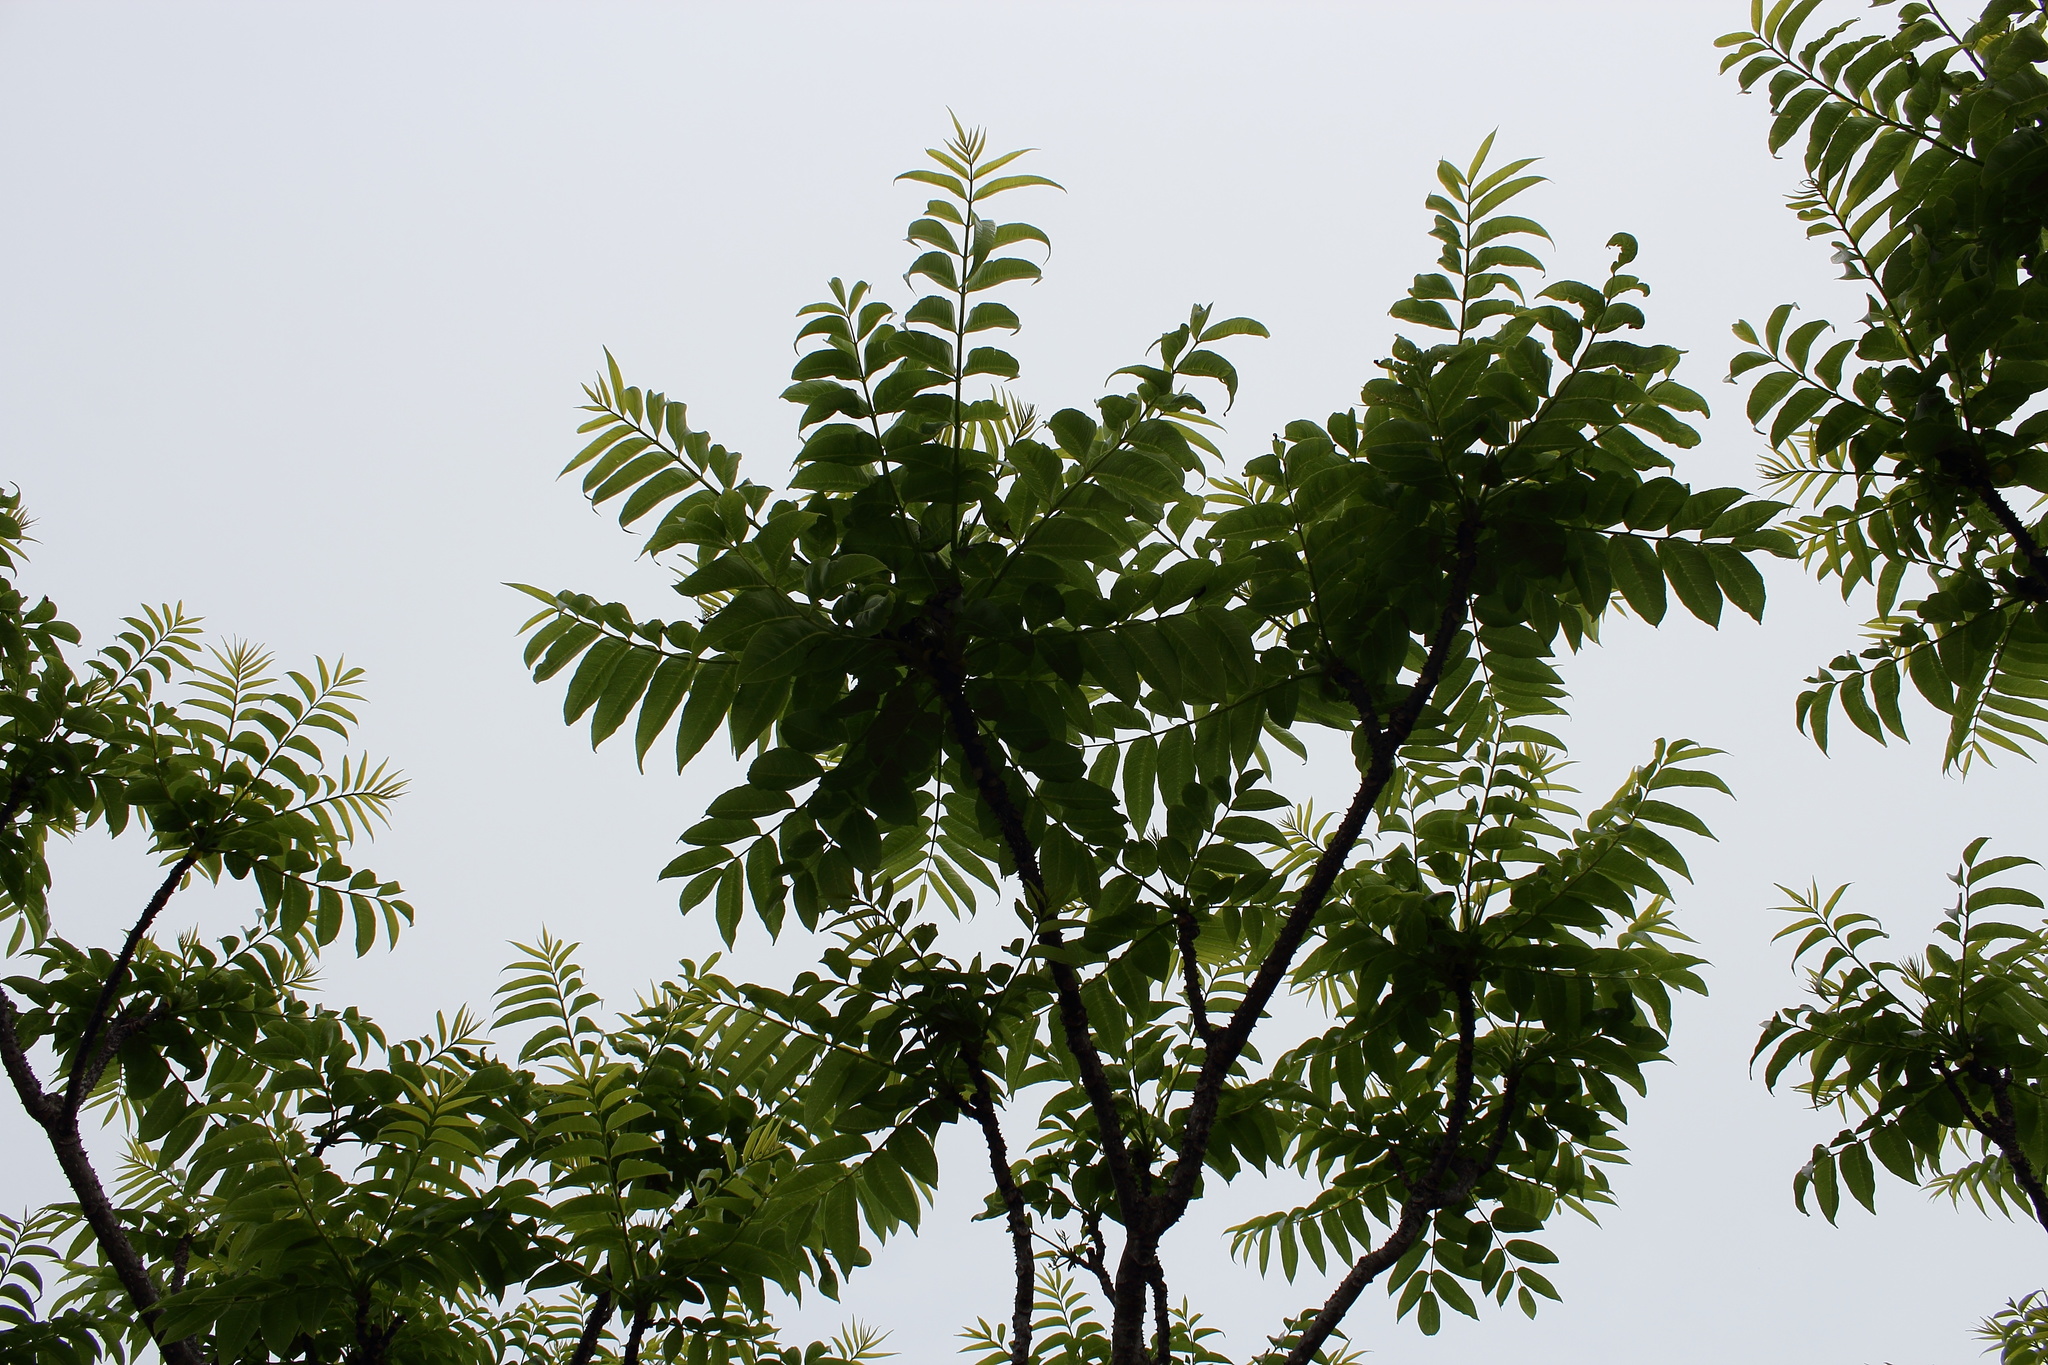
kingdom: Plantae
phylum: Tracheophyta
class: Magnoliopsida
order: Sapindales
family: Rutaceae
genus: Zanthoxylum
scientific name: Zanthoxylum ailanthoides
